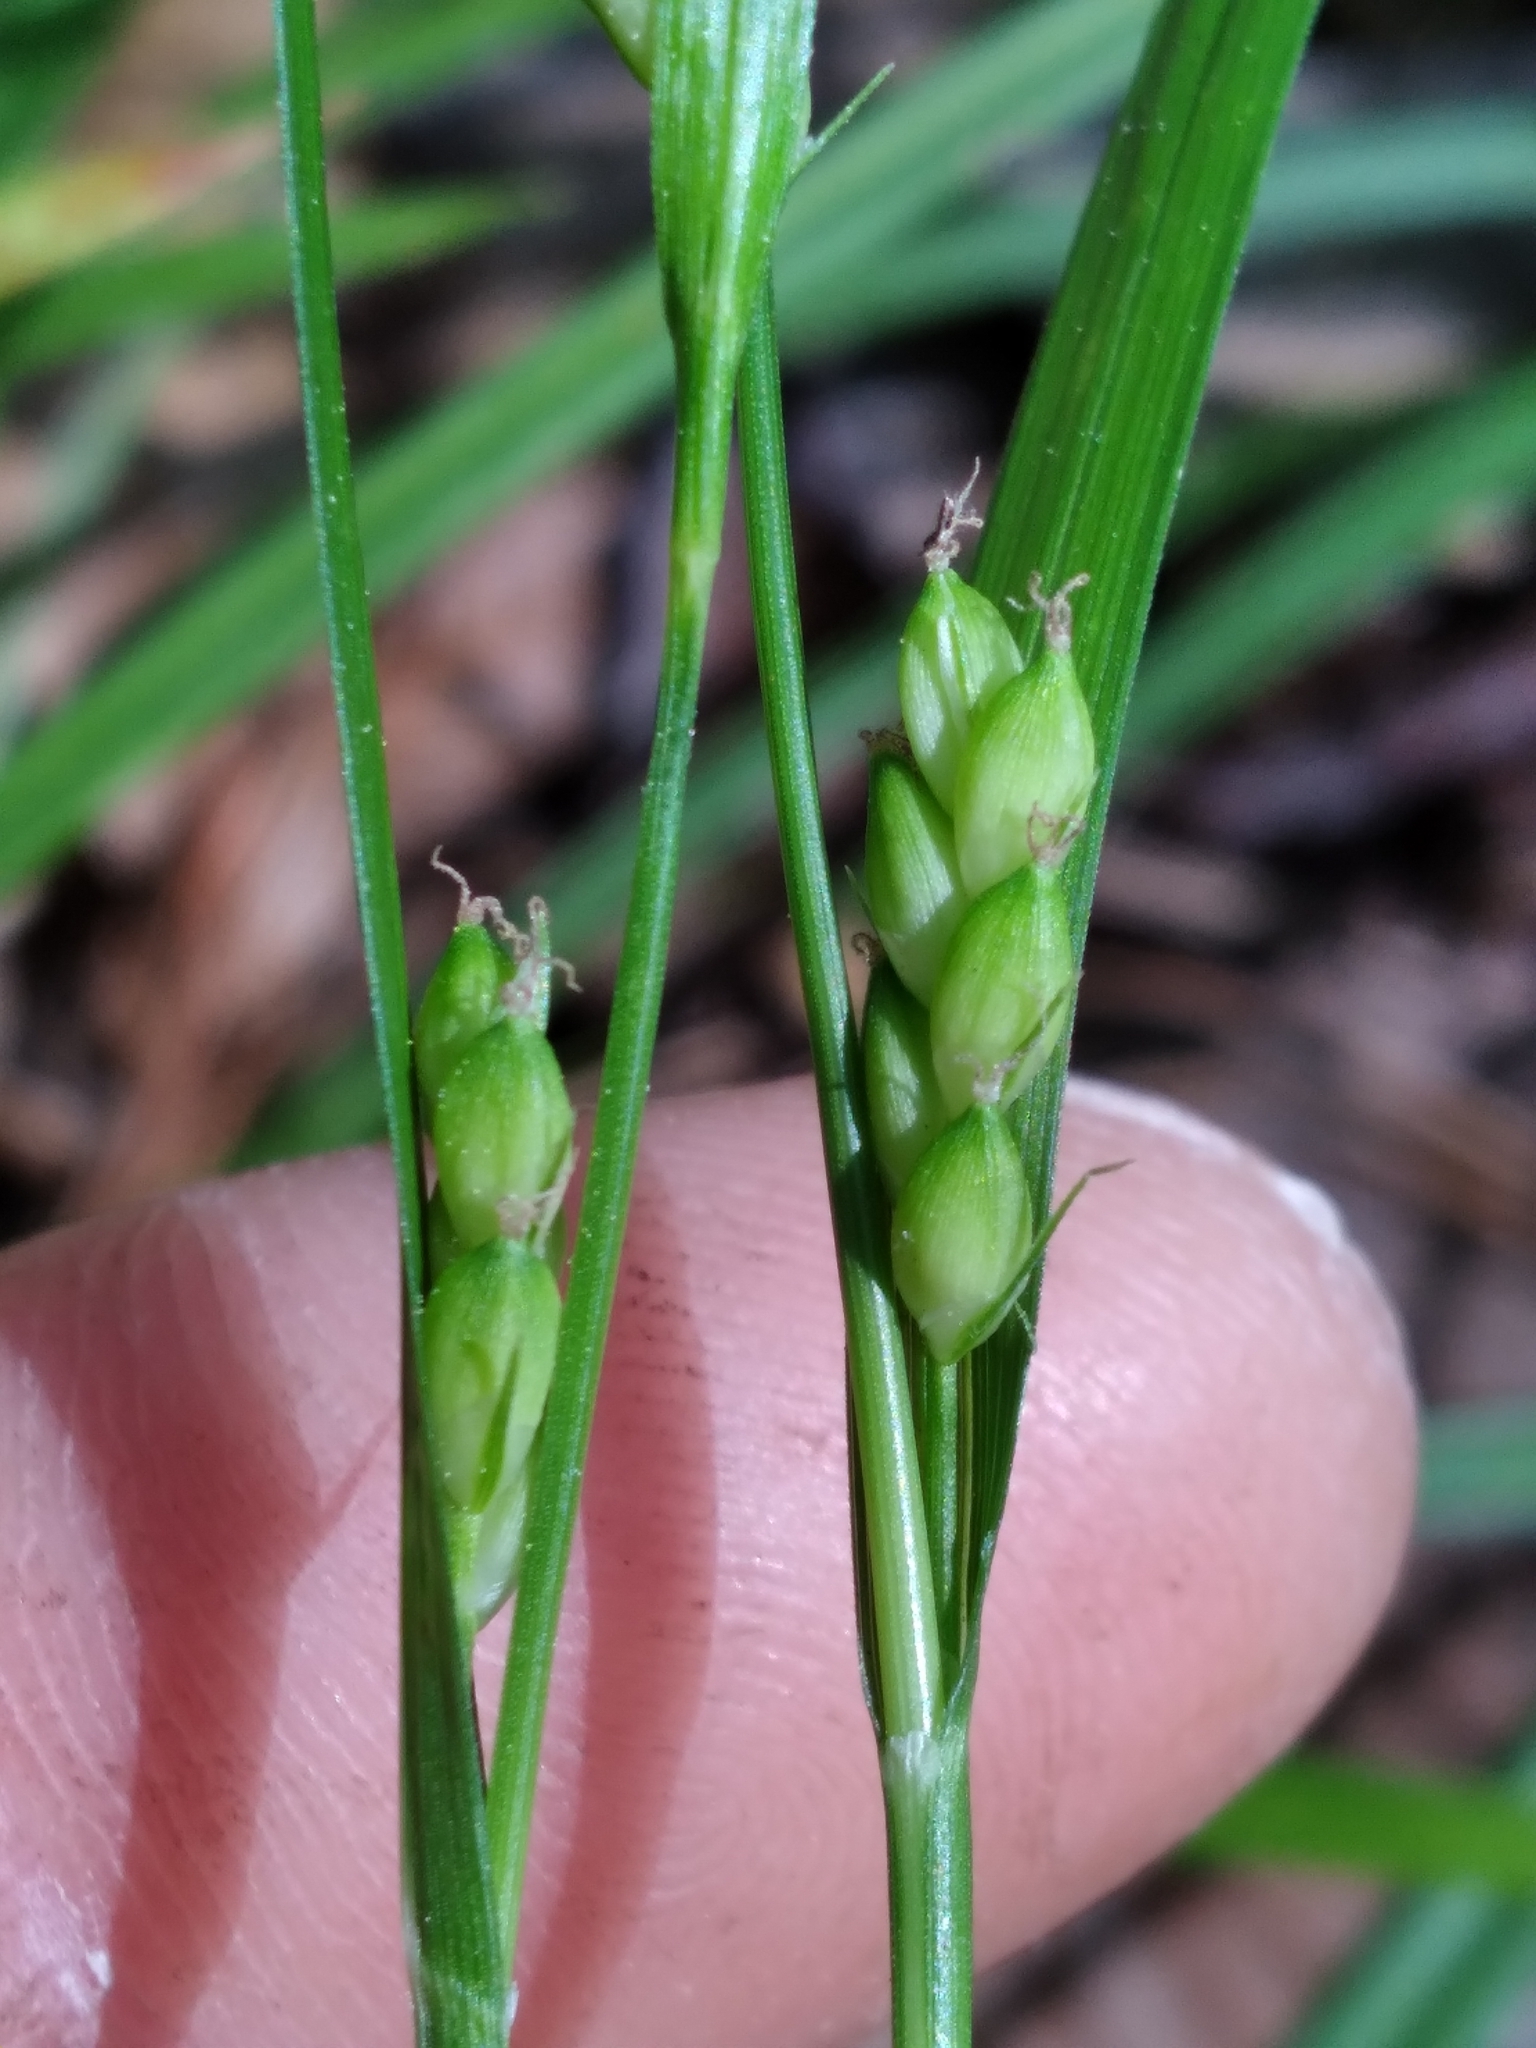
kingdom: Plantae
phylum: Tracheophyta
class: Liliopsida
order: Poales
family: Cyperaceae
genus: Carex
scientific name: Carex paeninsulae
